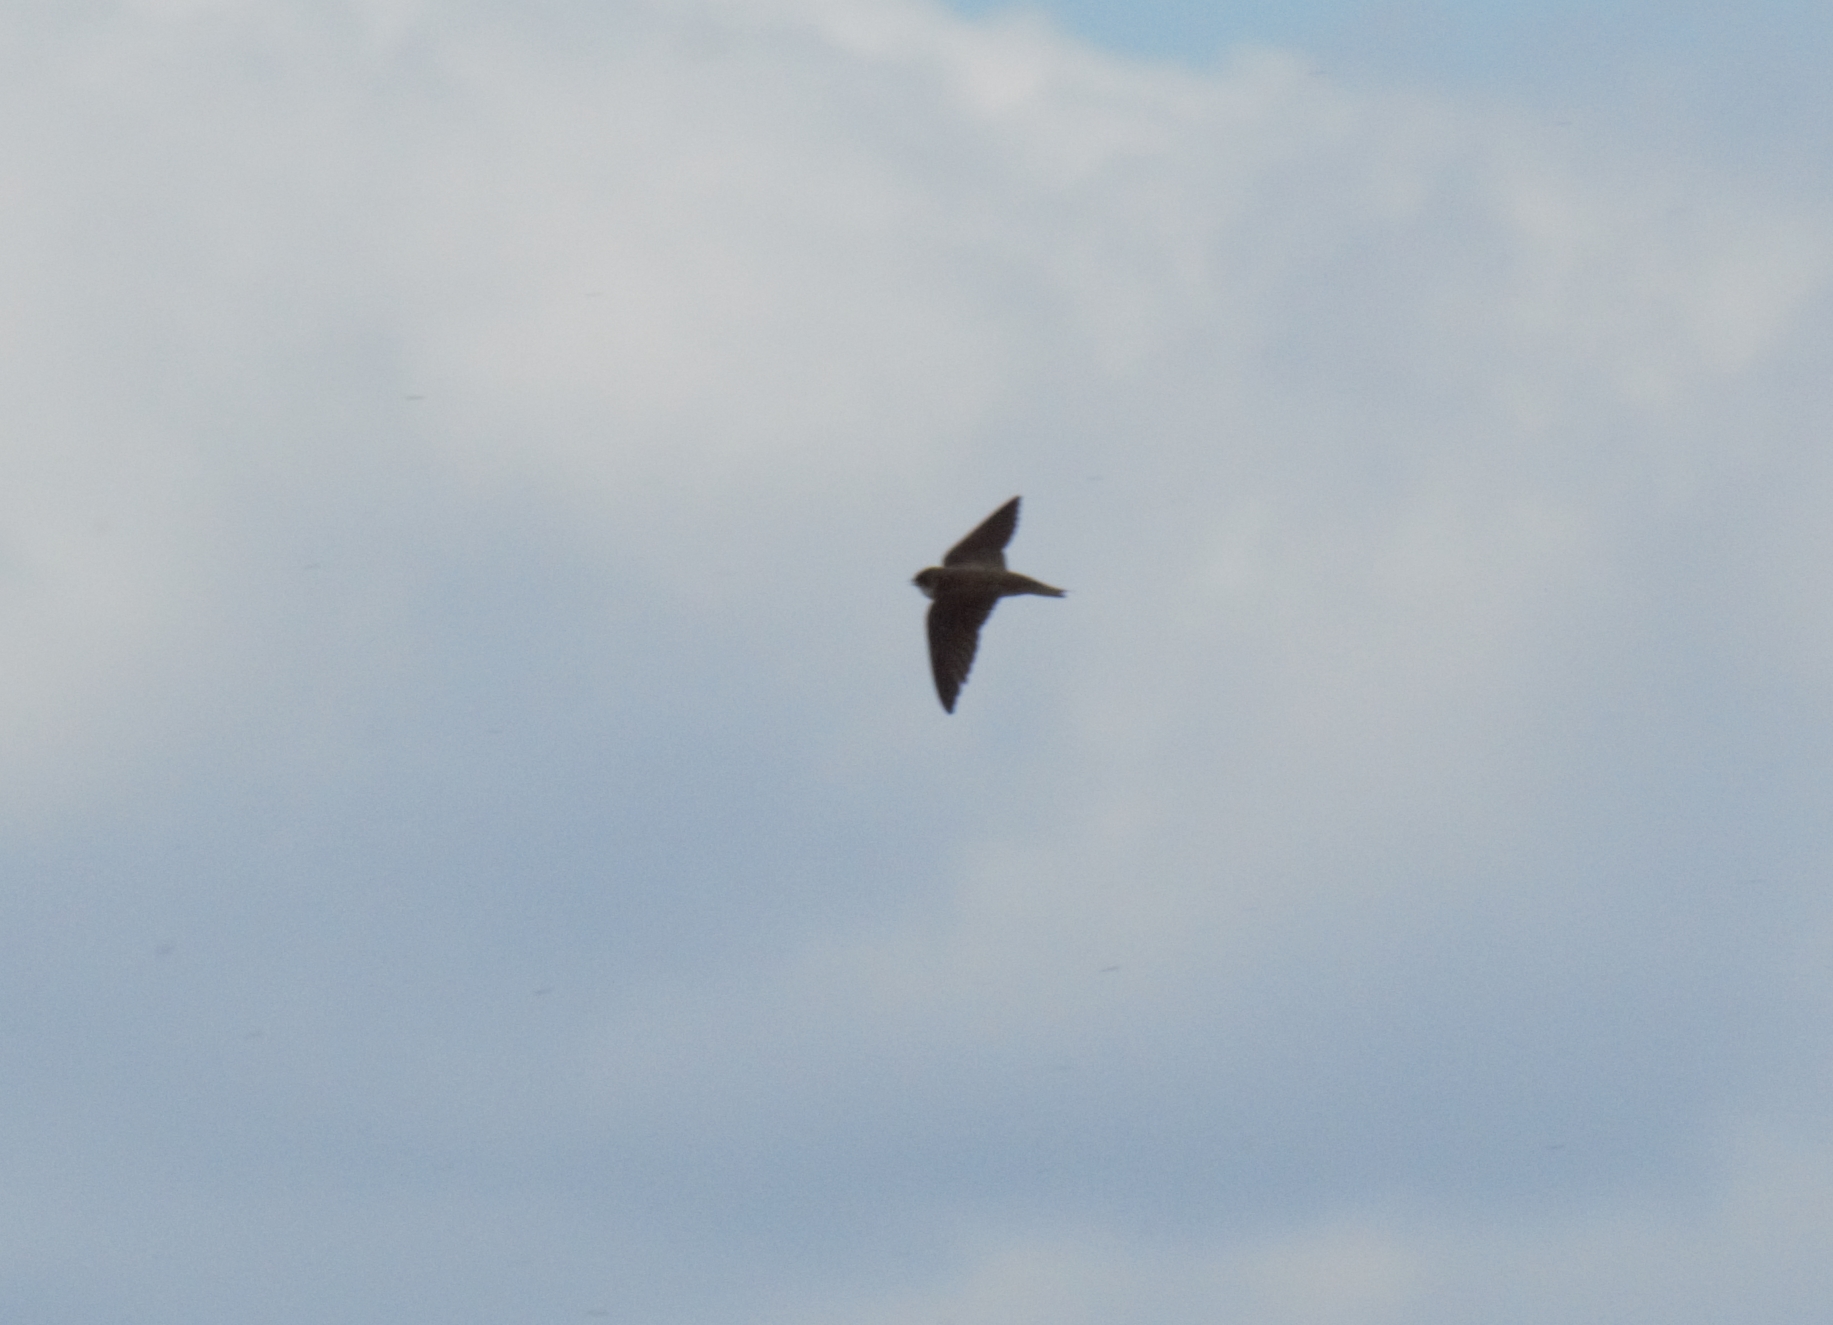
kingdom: Animalia
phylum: Chordata
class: Aves
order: Passeriformes
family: Hirundinidae
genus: Riparia
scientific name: Riparia riparia
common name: Sand martin
